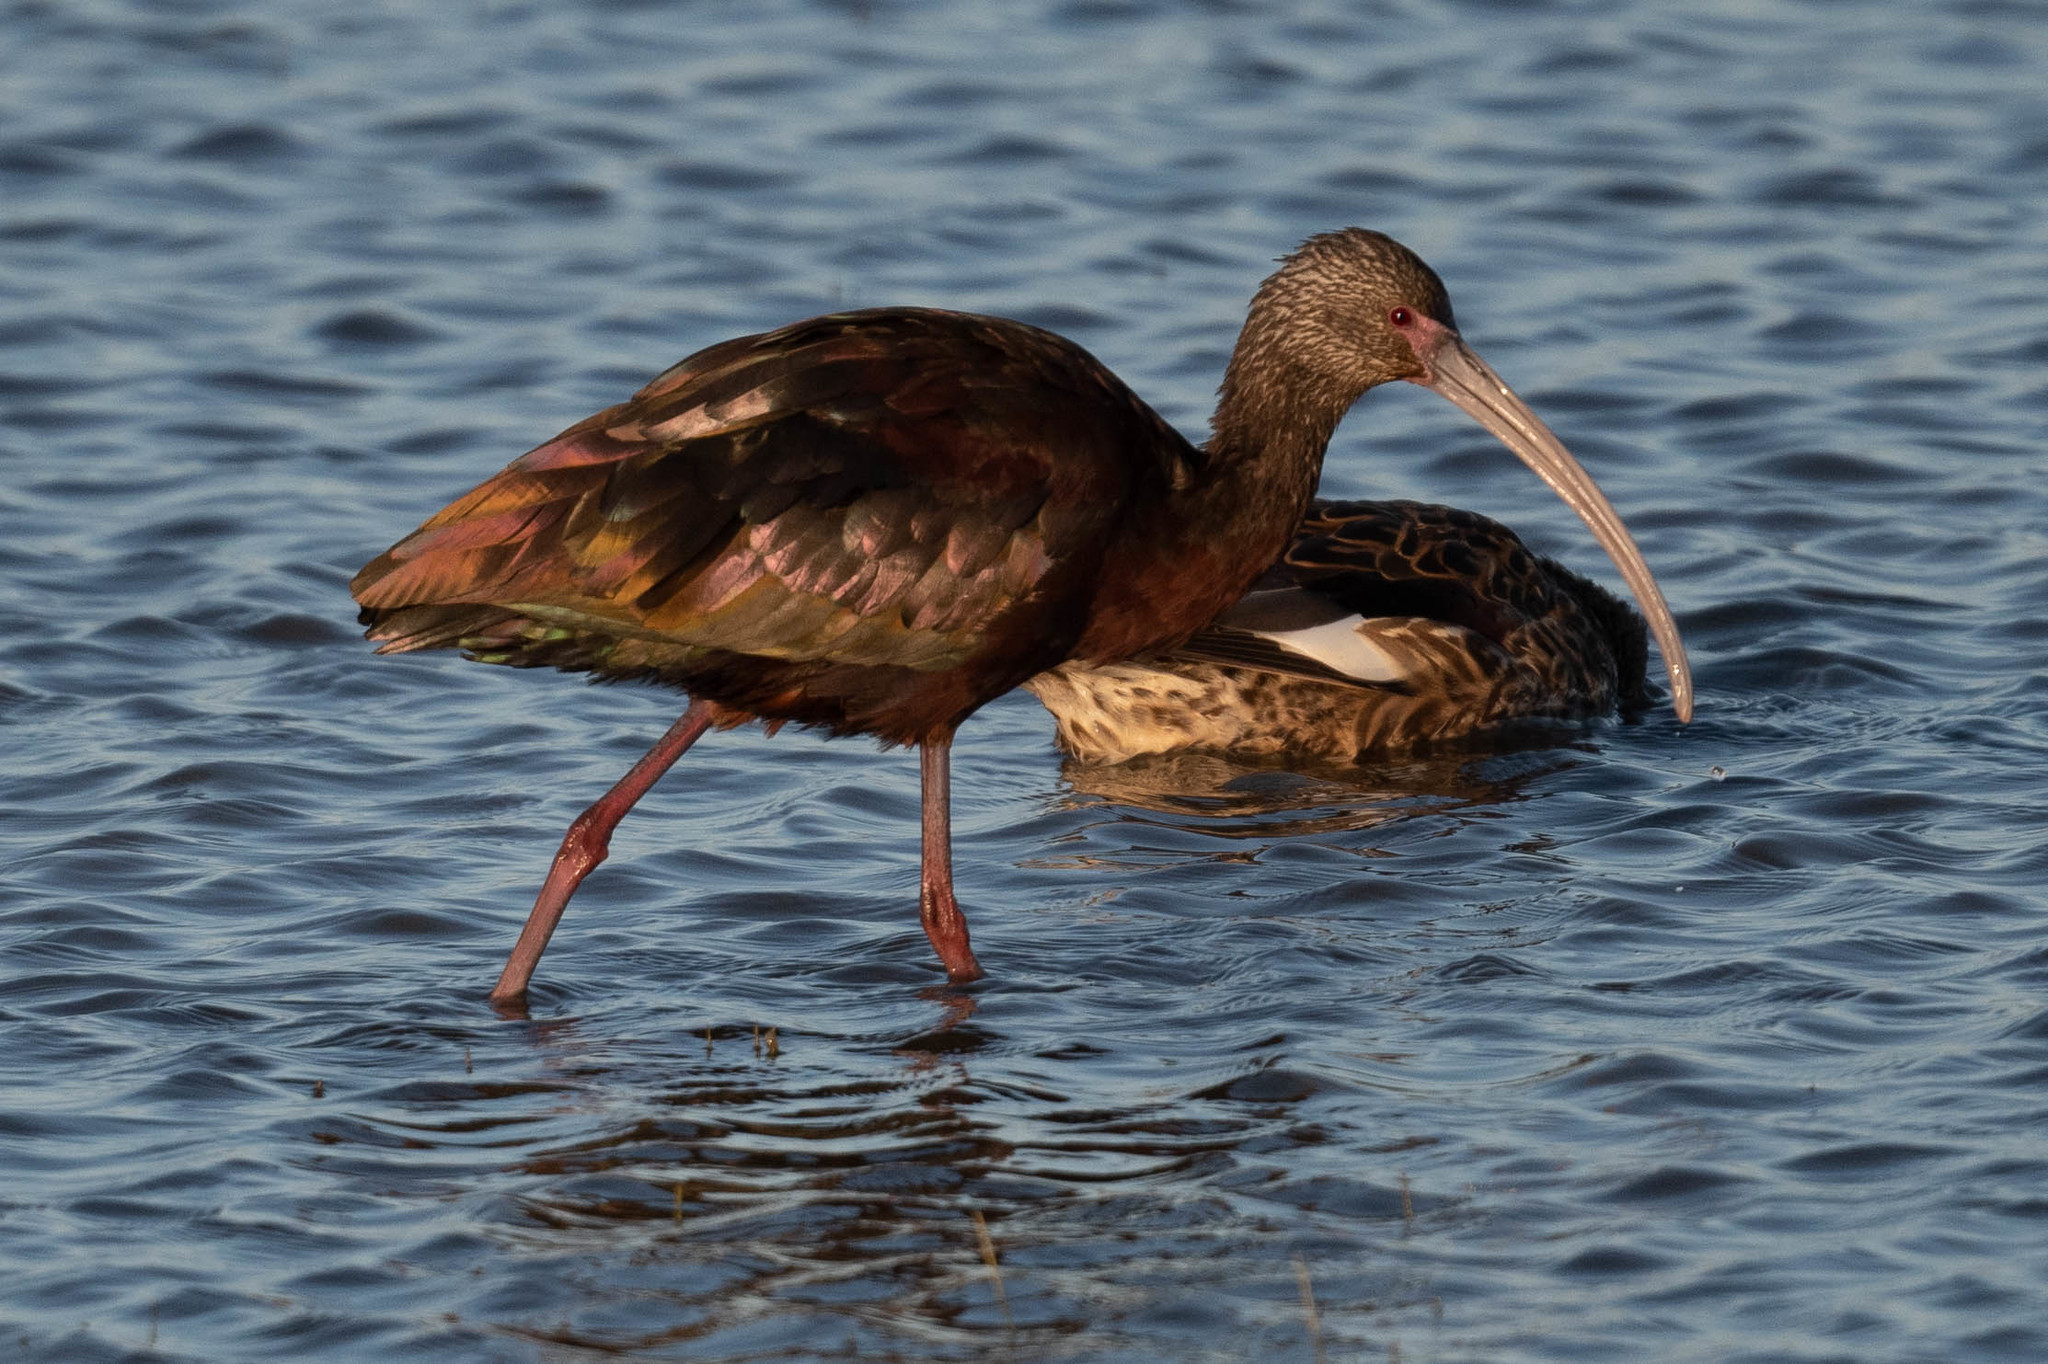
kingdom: Animalia
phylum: Chordata
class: Aves
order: Pelecaniformes
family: Threskiornithidae
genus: Plegadis
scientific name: Plegadis chihi
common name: White-faced ibis
